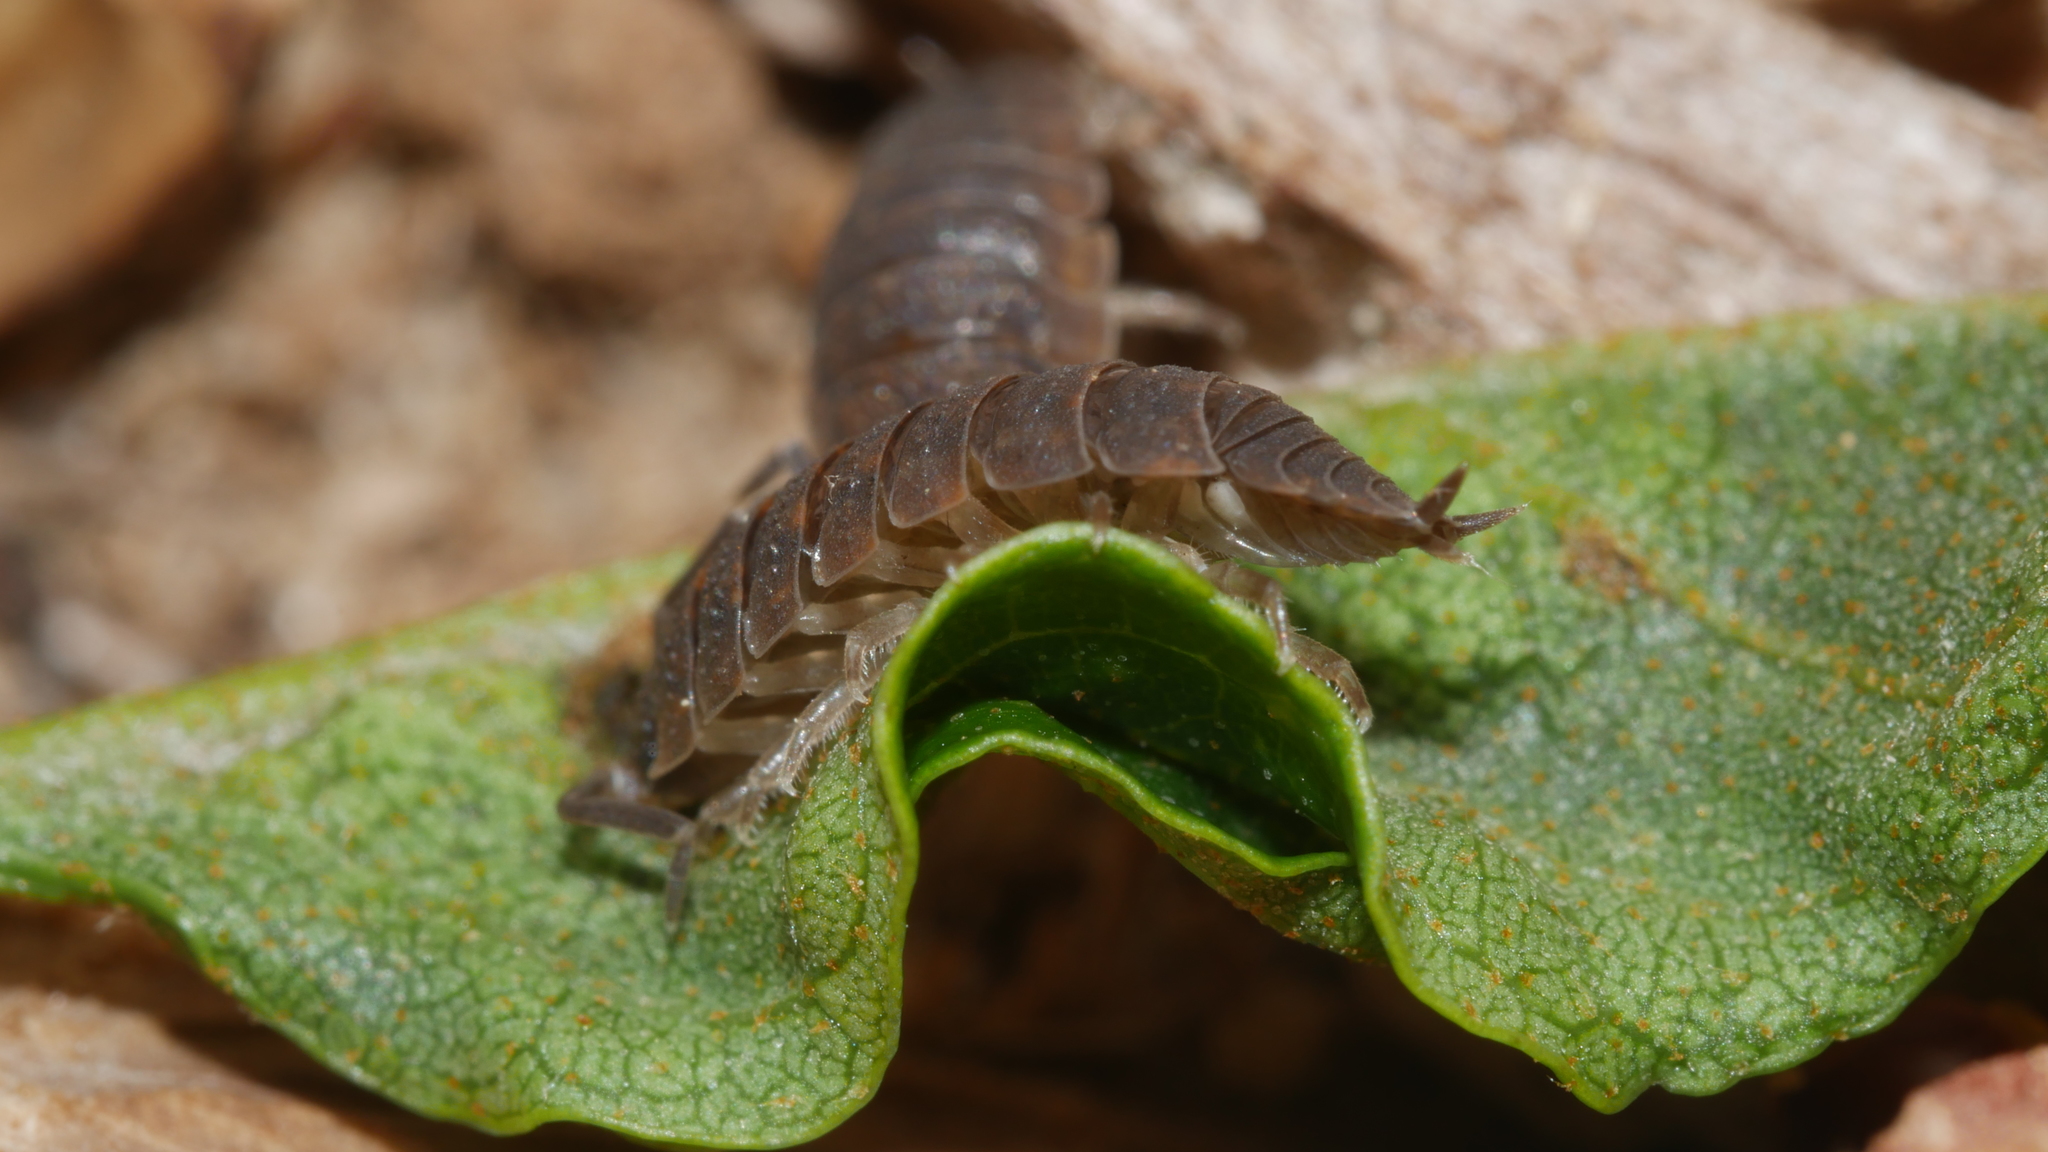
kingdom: Animalia
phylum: Arthropoda
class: Malacostraca
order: Isopoda
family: Porcellionidae
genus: Porcellio
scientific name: Porcellio scaber
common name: Common rough woodlouse
